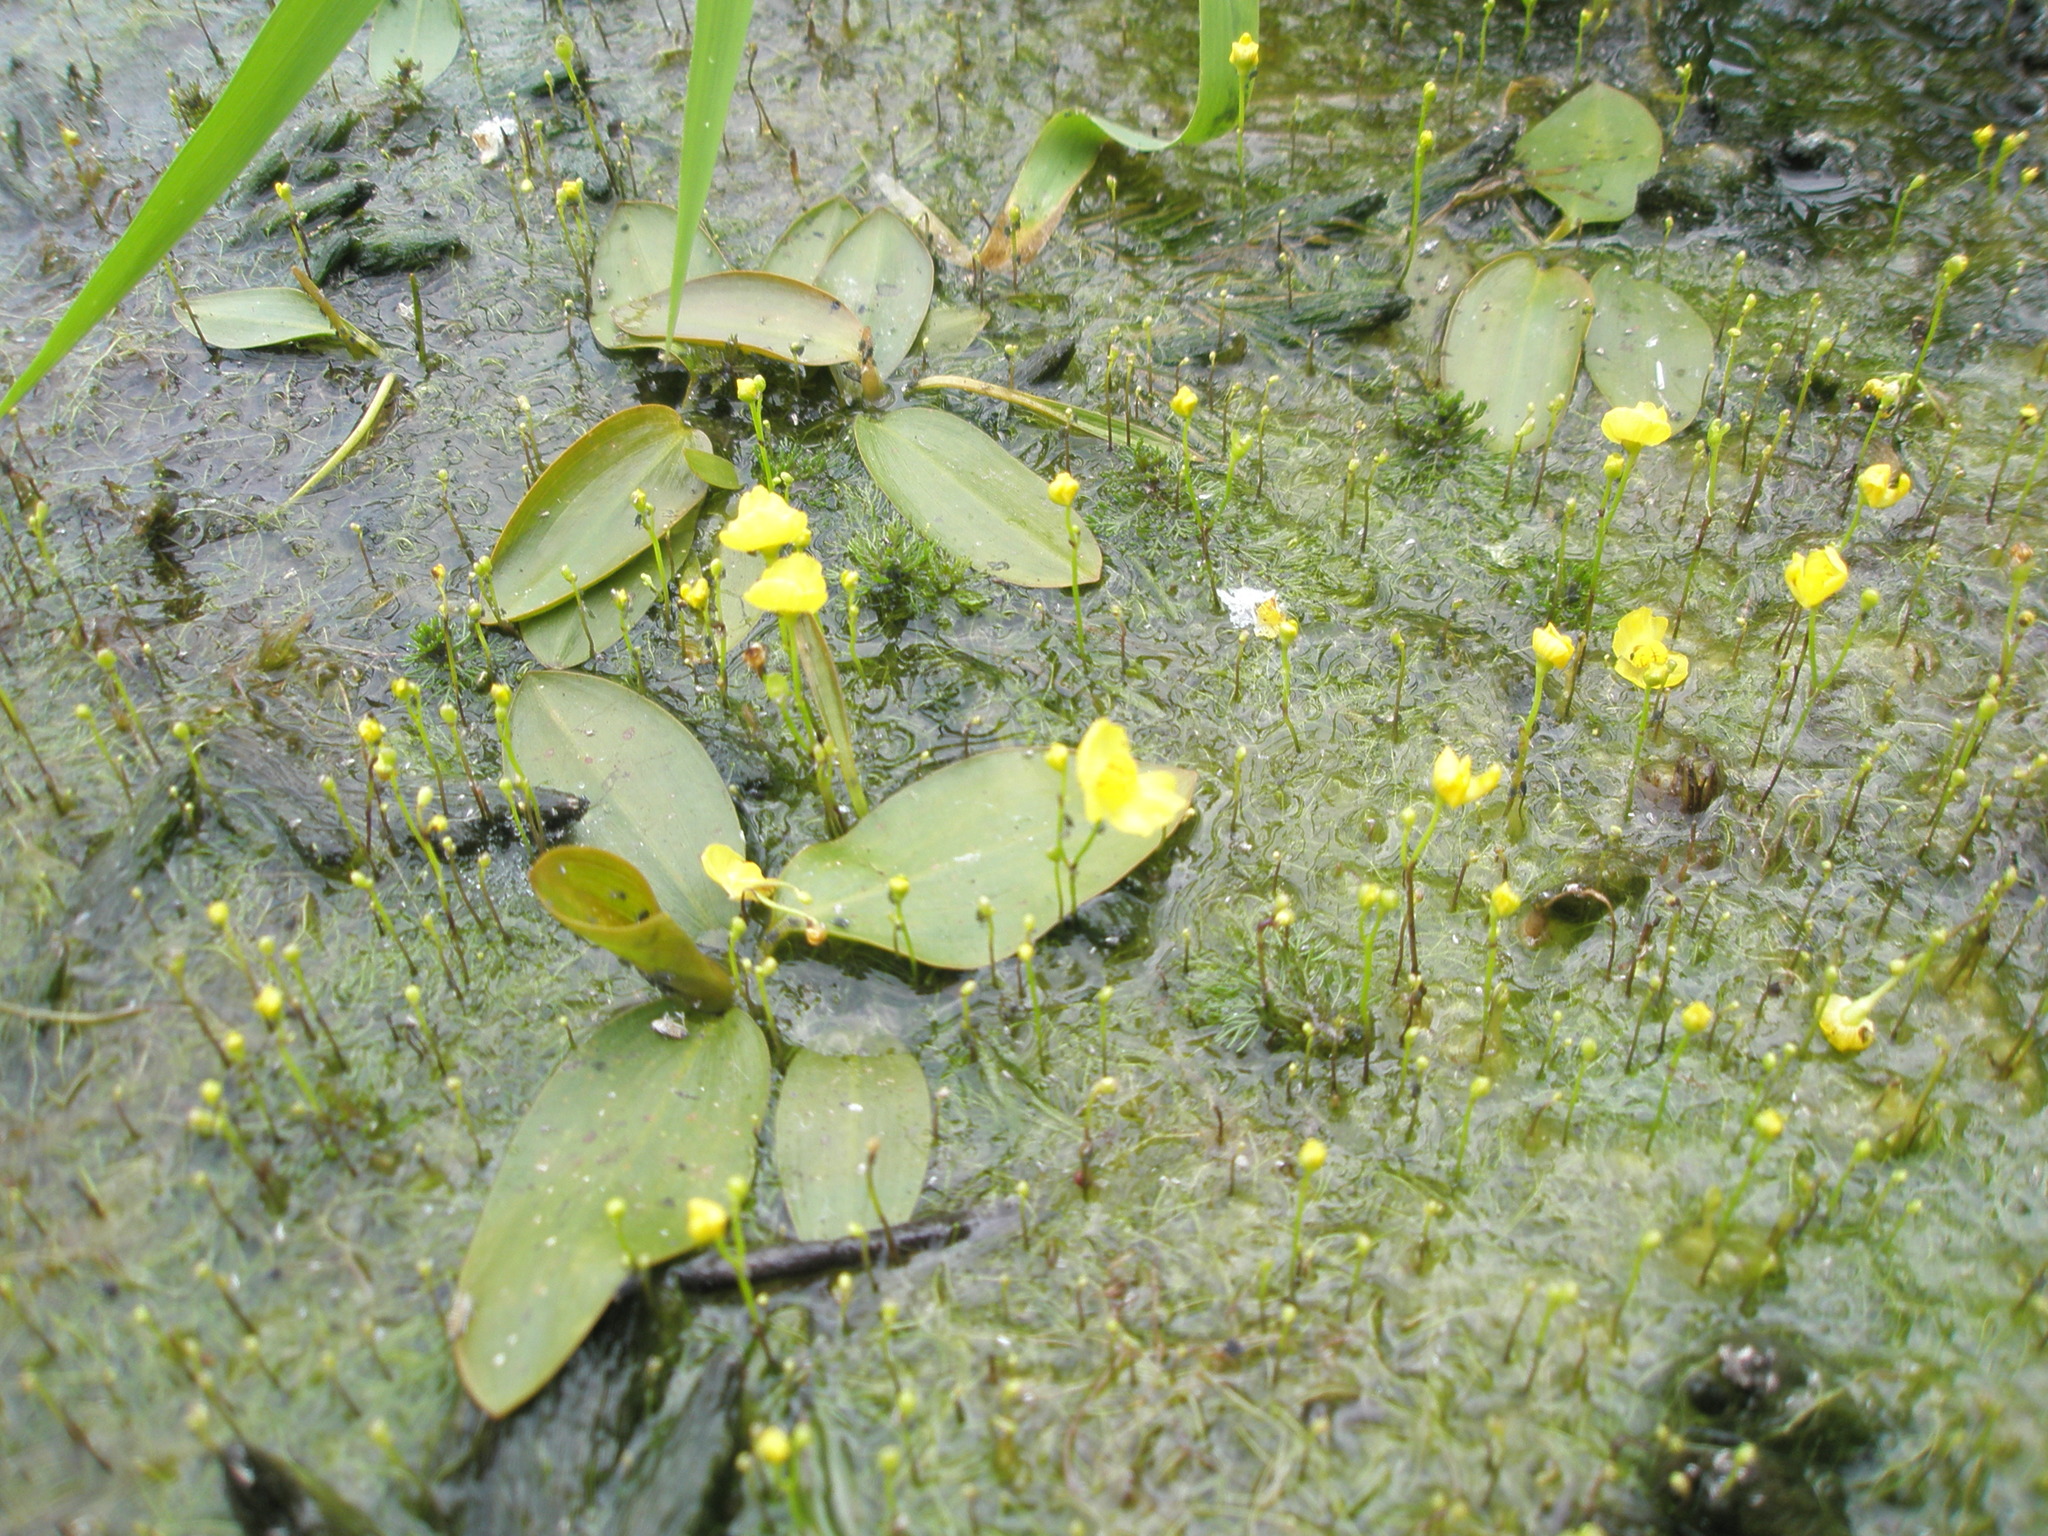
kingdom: Plantae
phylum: Tracheophyta
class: Magnoliopsida
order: Lamiales
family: Lentibulariaceae
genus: Utricularia
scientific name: Utricularia gibba
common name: Humped bladderwort
